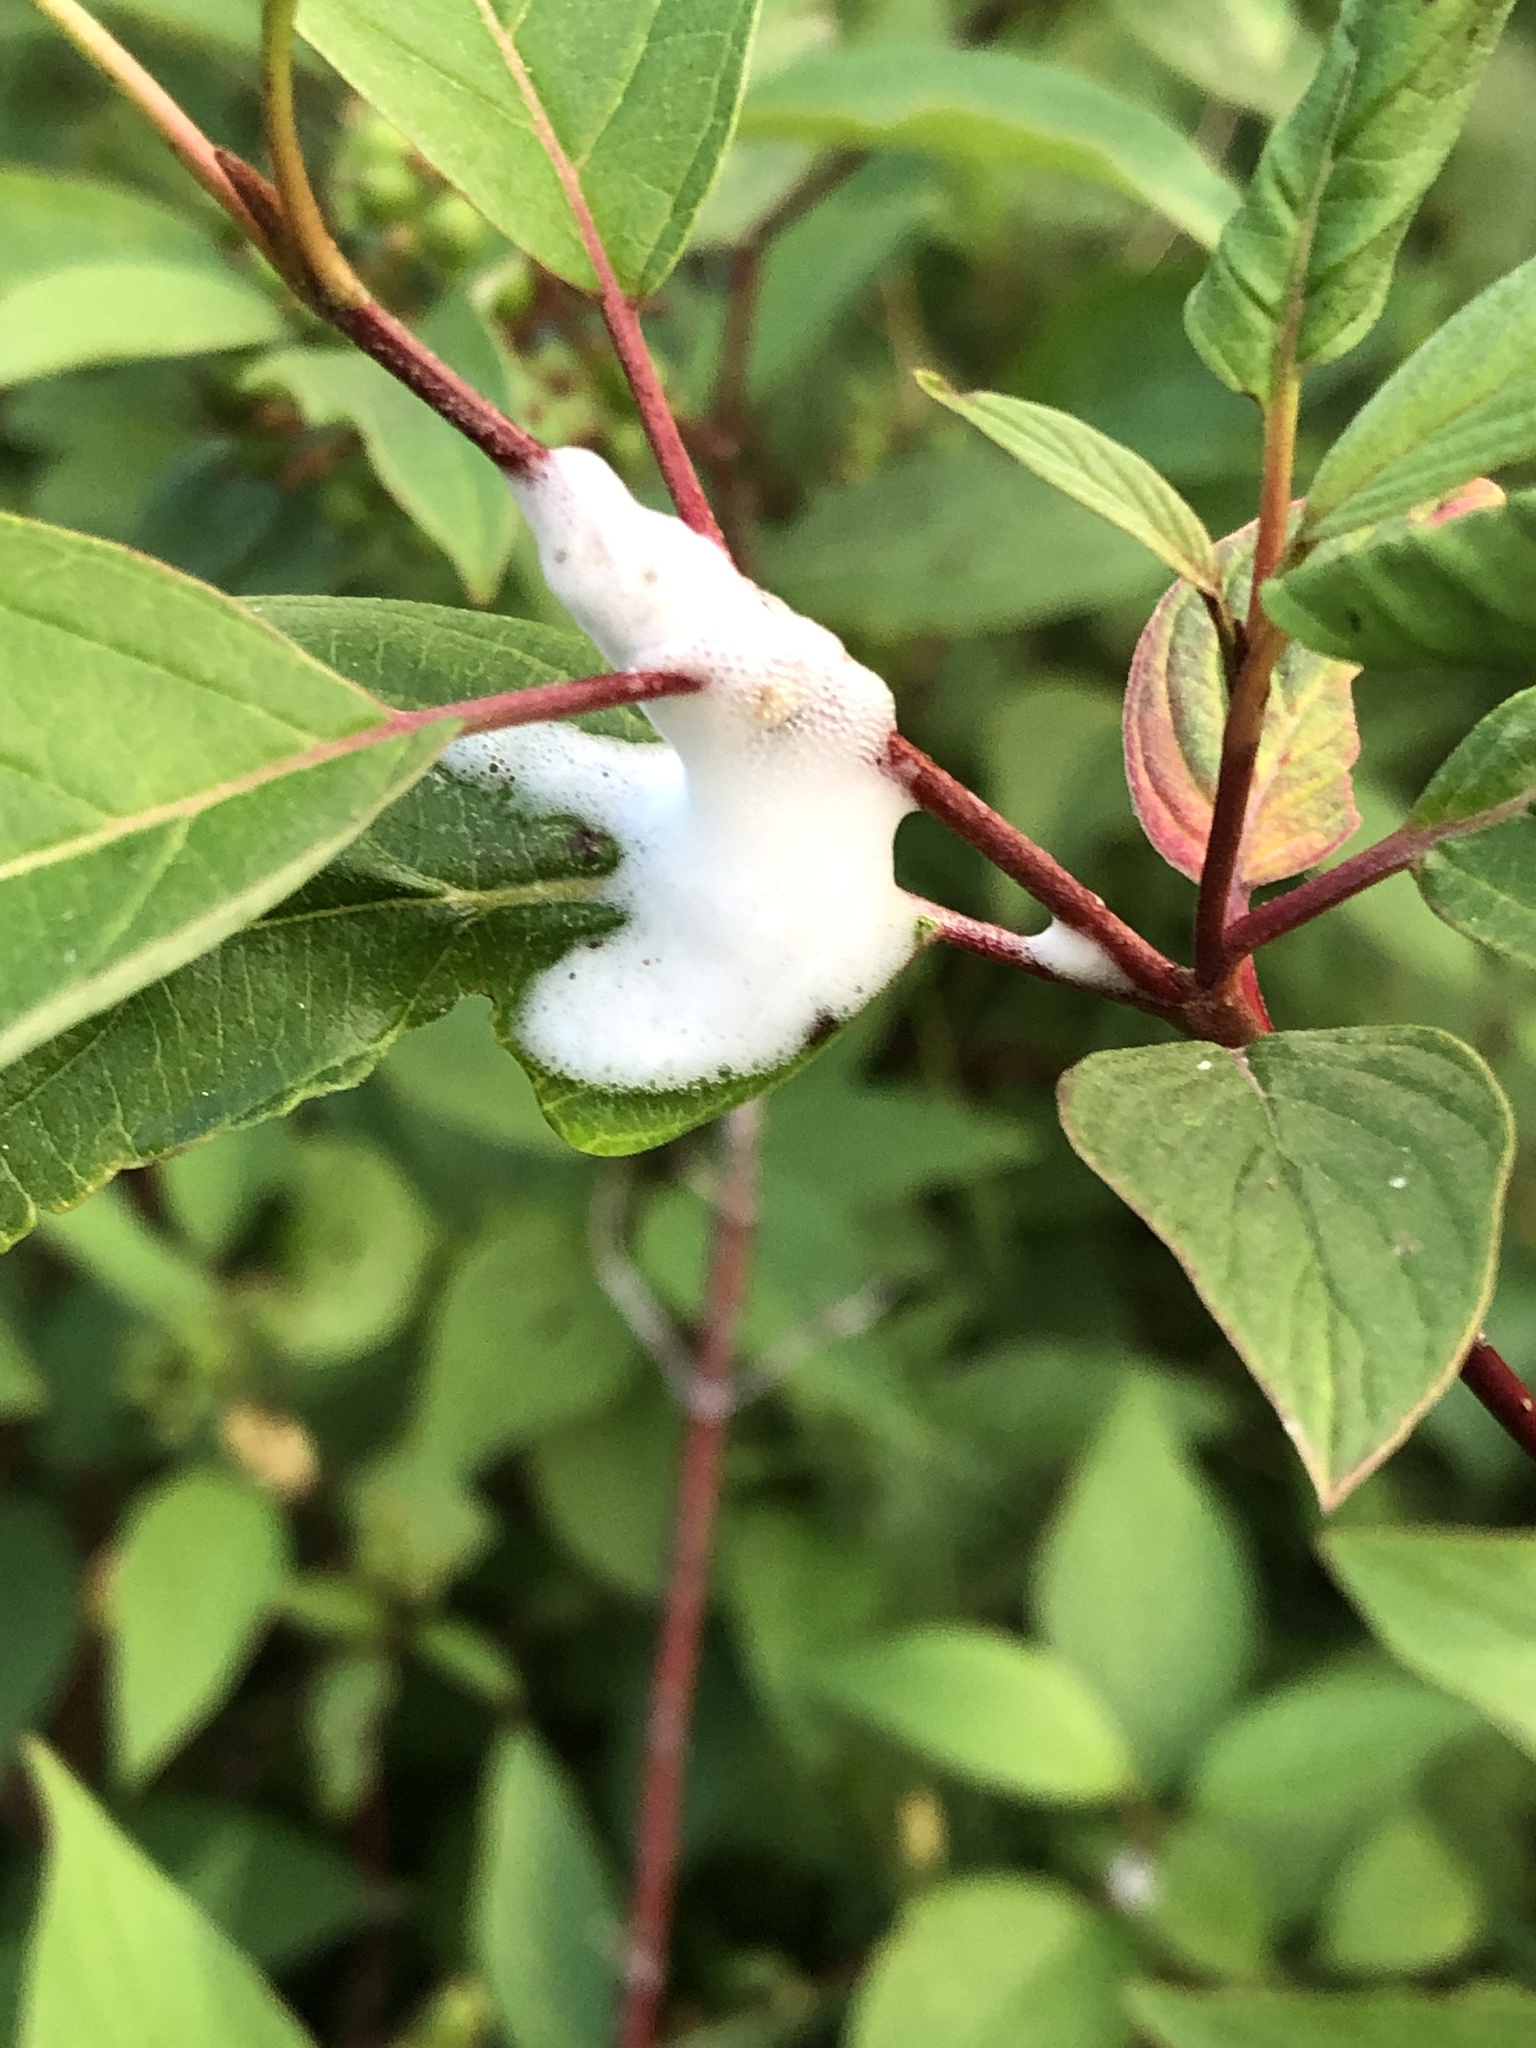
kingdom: Animalia
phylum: Arthropoda
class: Insecta
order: Hemiptera
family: Clastopteridae
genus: Clastoptera
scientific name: Clastoptera proteus
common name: Dogwood spittlebug
